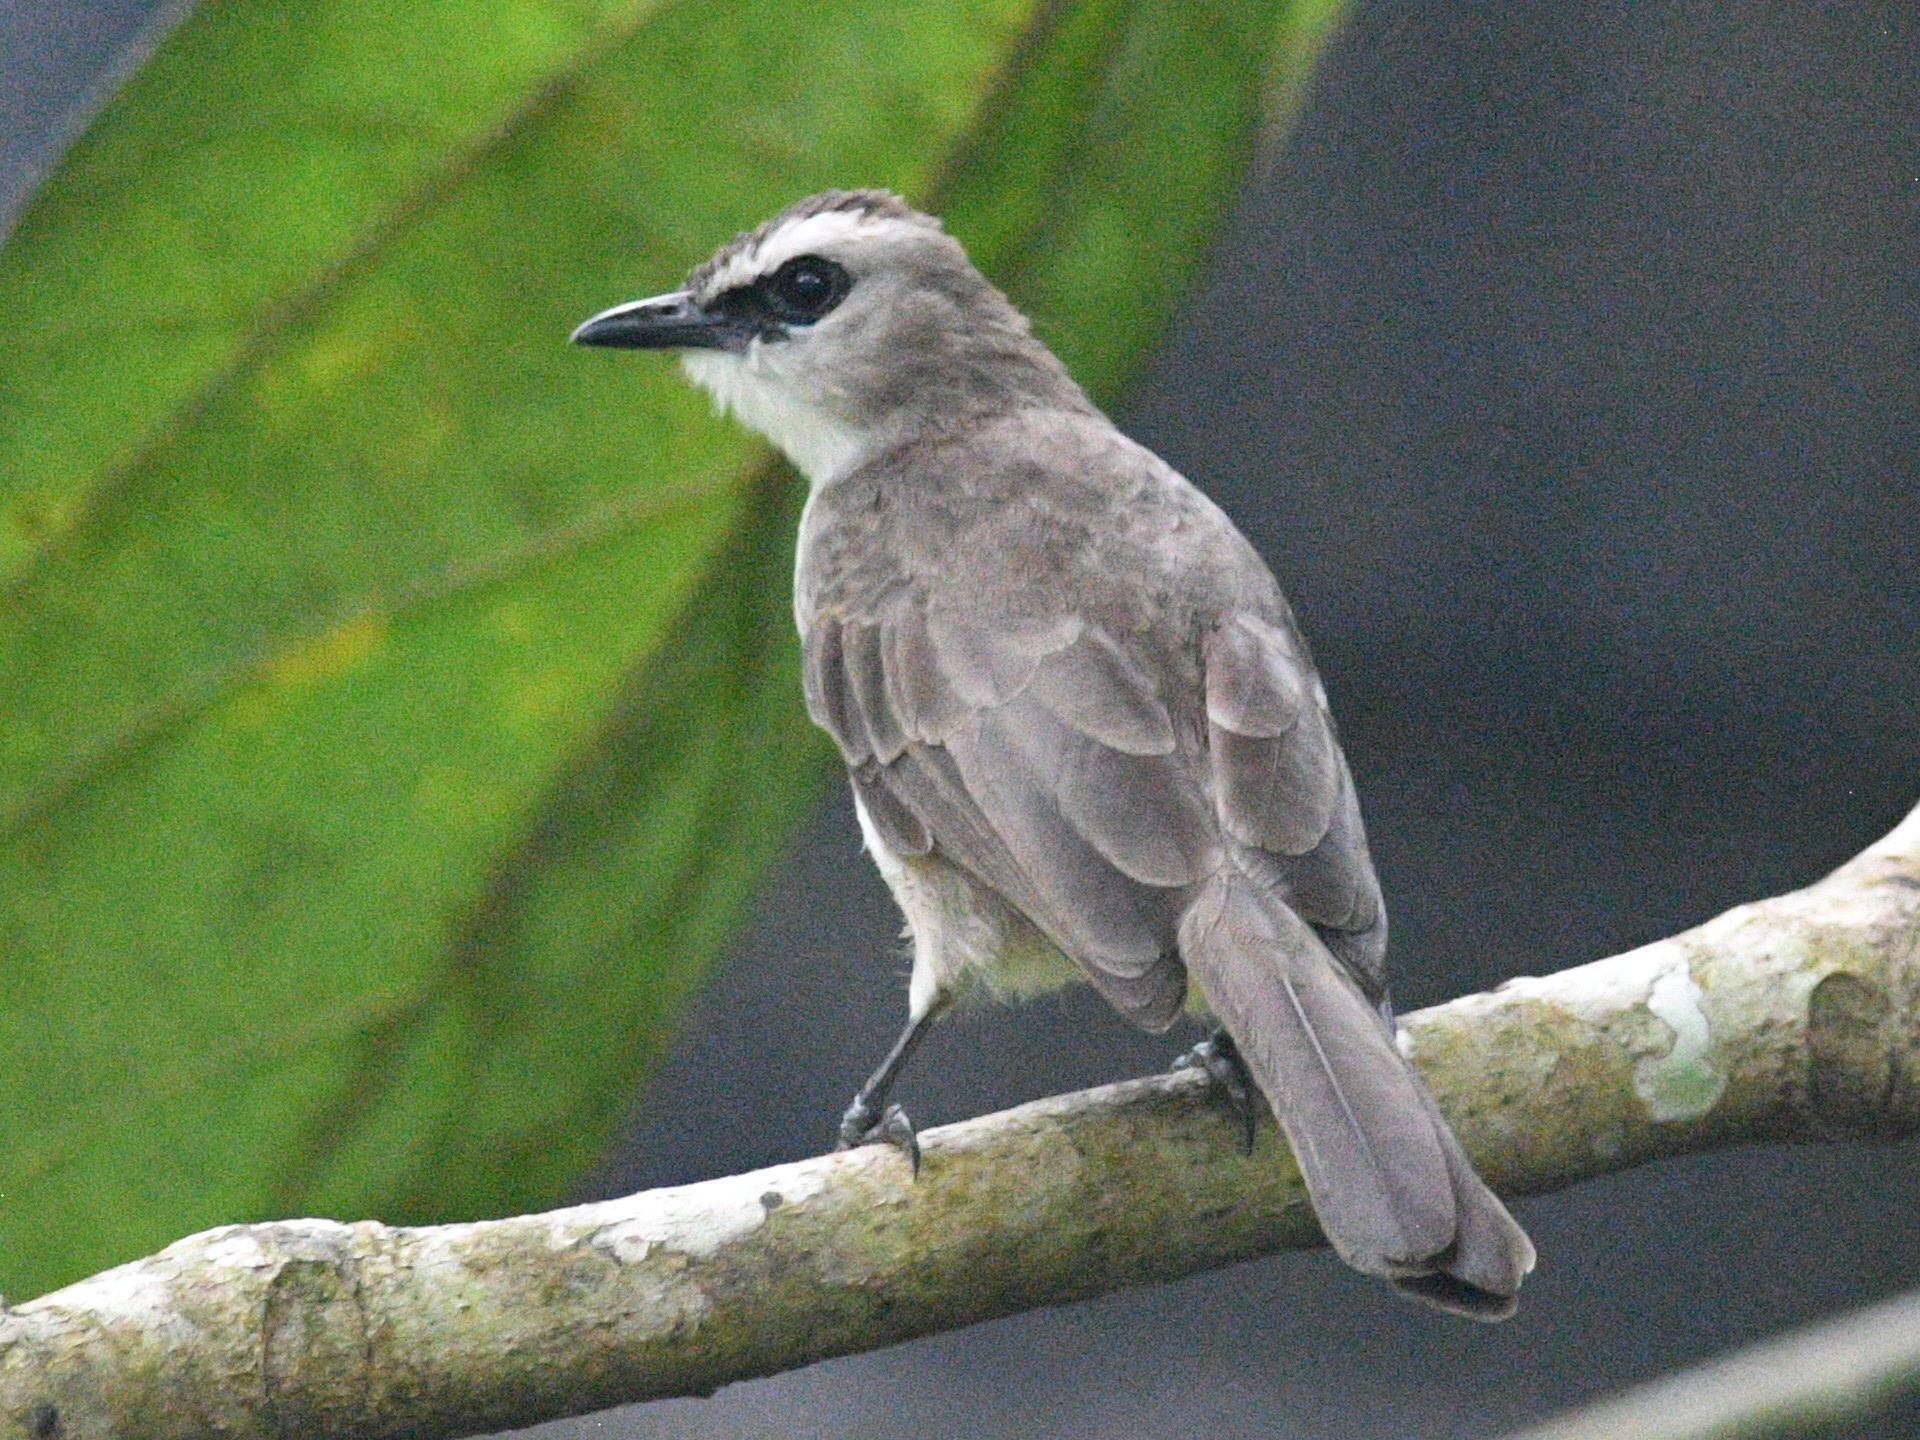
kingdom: Animalia
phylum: Chordata
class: Aves
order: Passeriformes
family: Pycnonotidae
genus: Pycnonotus
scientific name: Pycnonotus goiavier
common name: Yellow-vented bulbul
